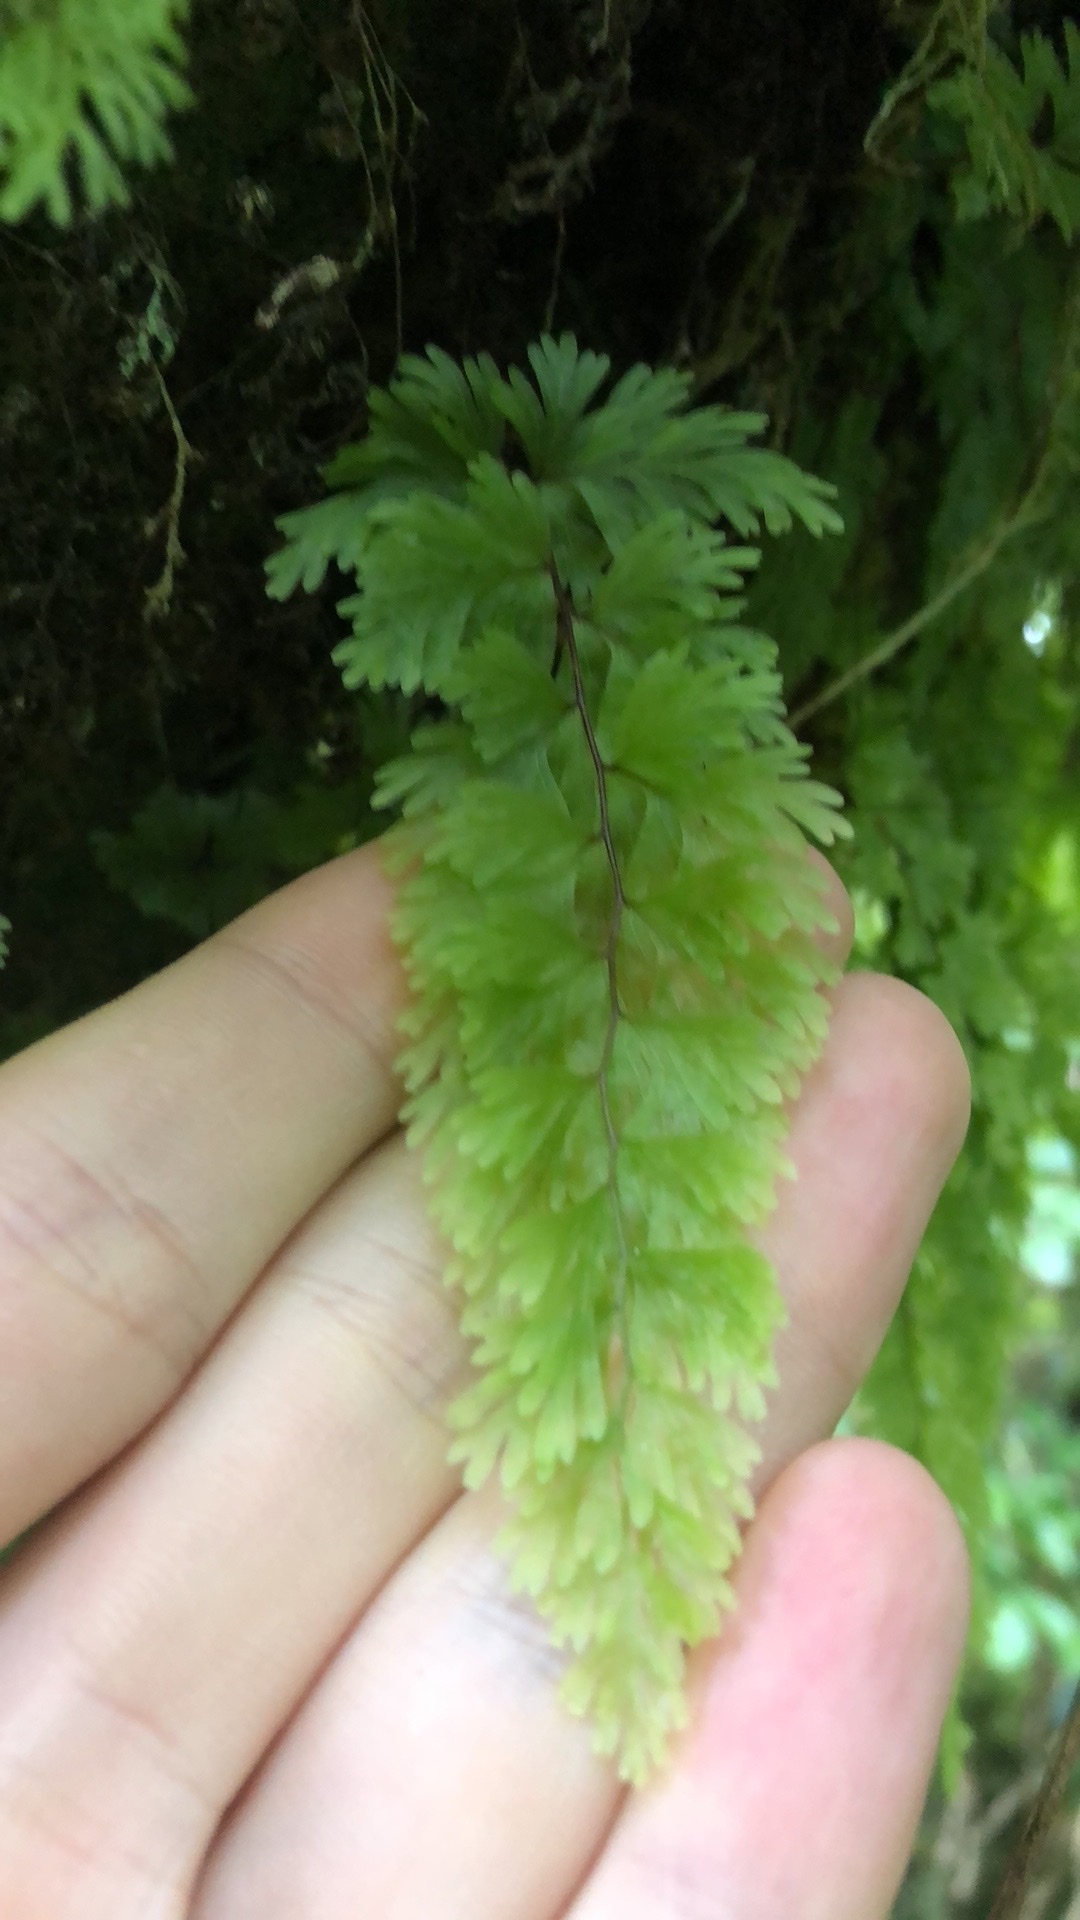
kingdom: Plantae
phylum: Tracheophyta
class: Polypodiopsida
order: Hymenophyllales
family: Hymenophyllaceae
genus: Hymenophyllum
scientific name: Hymenophyllum flabellatum
